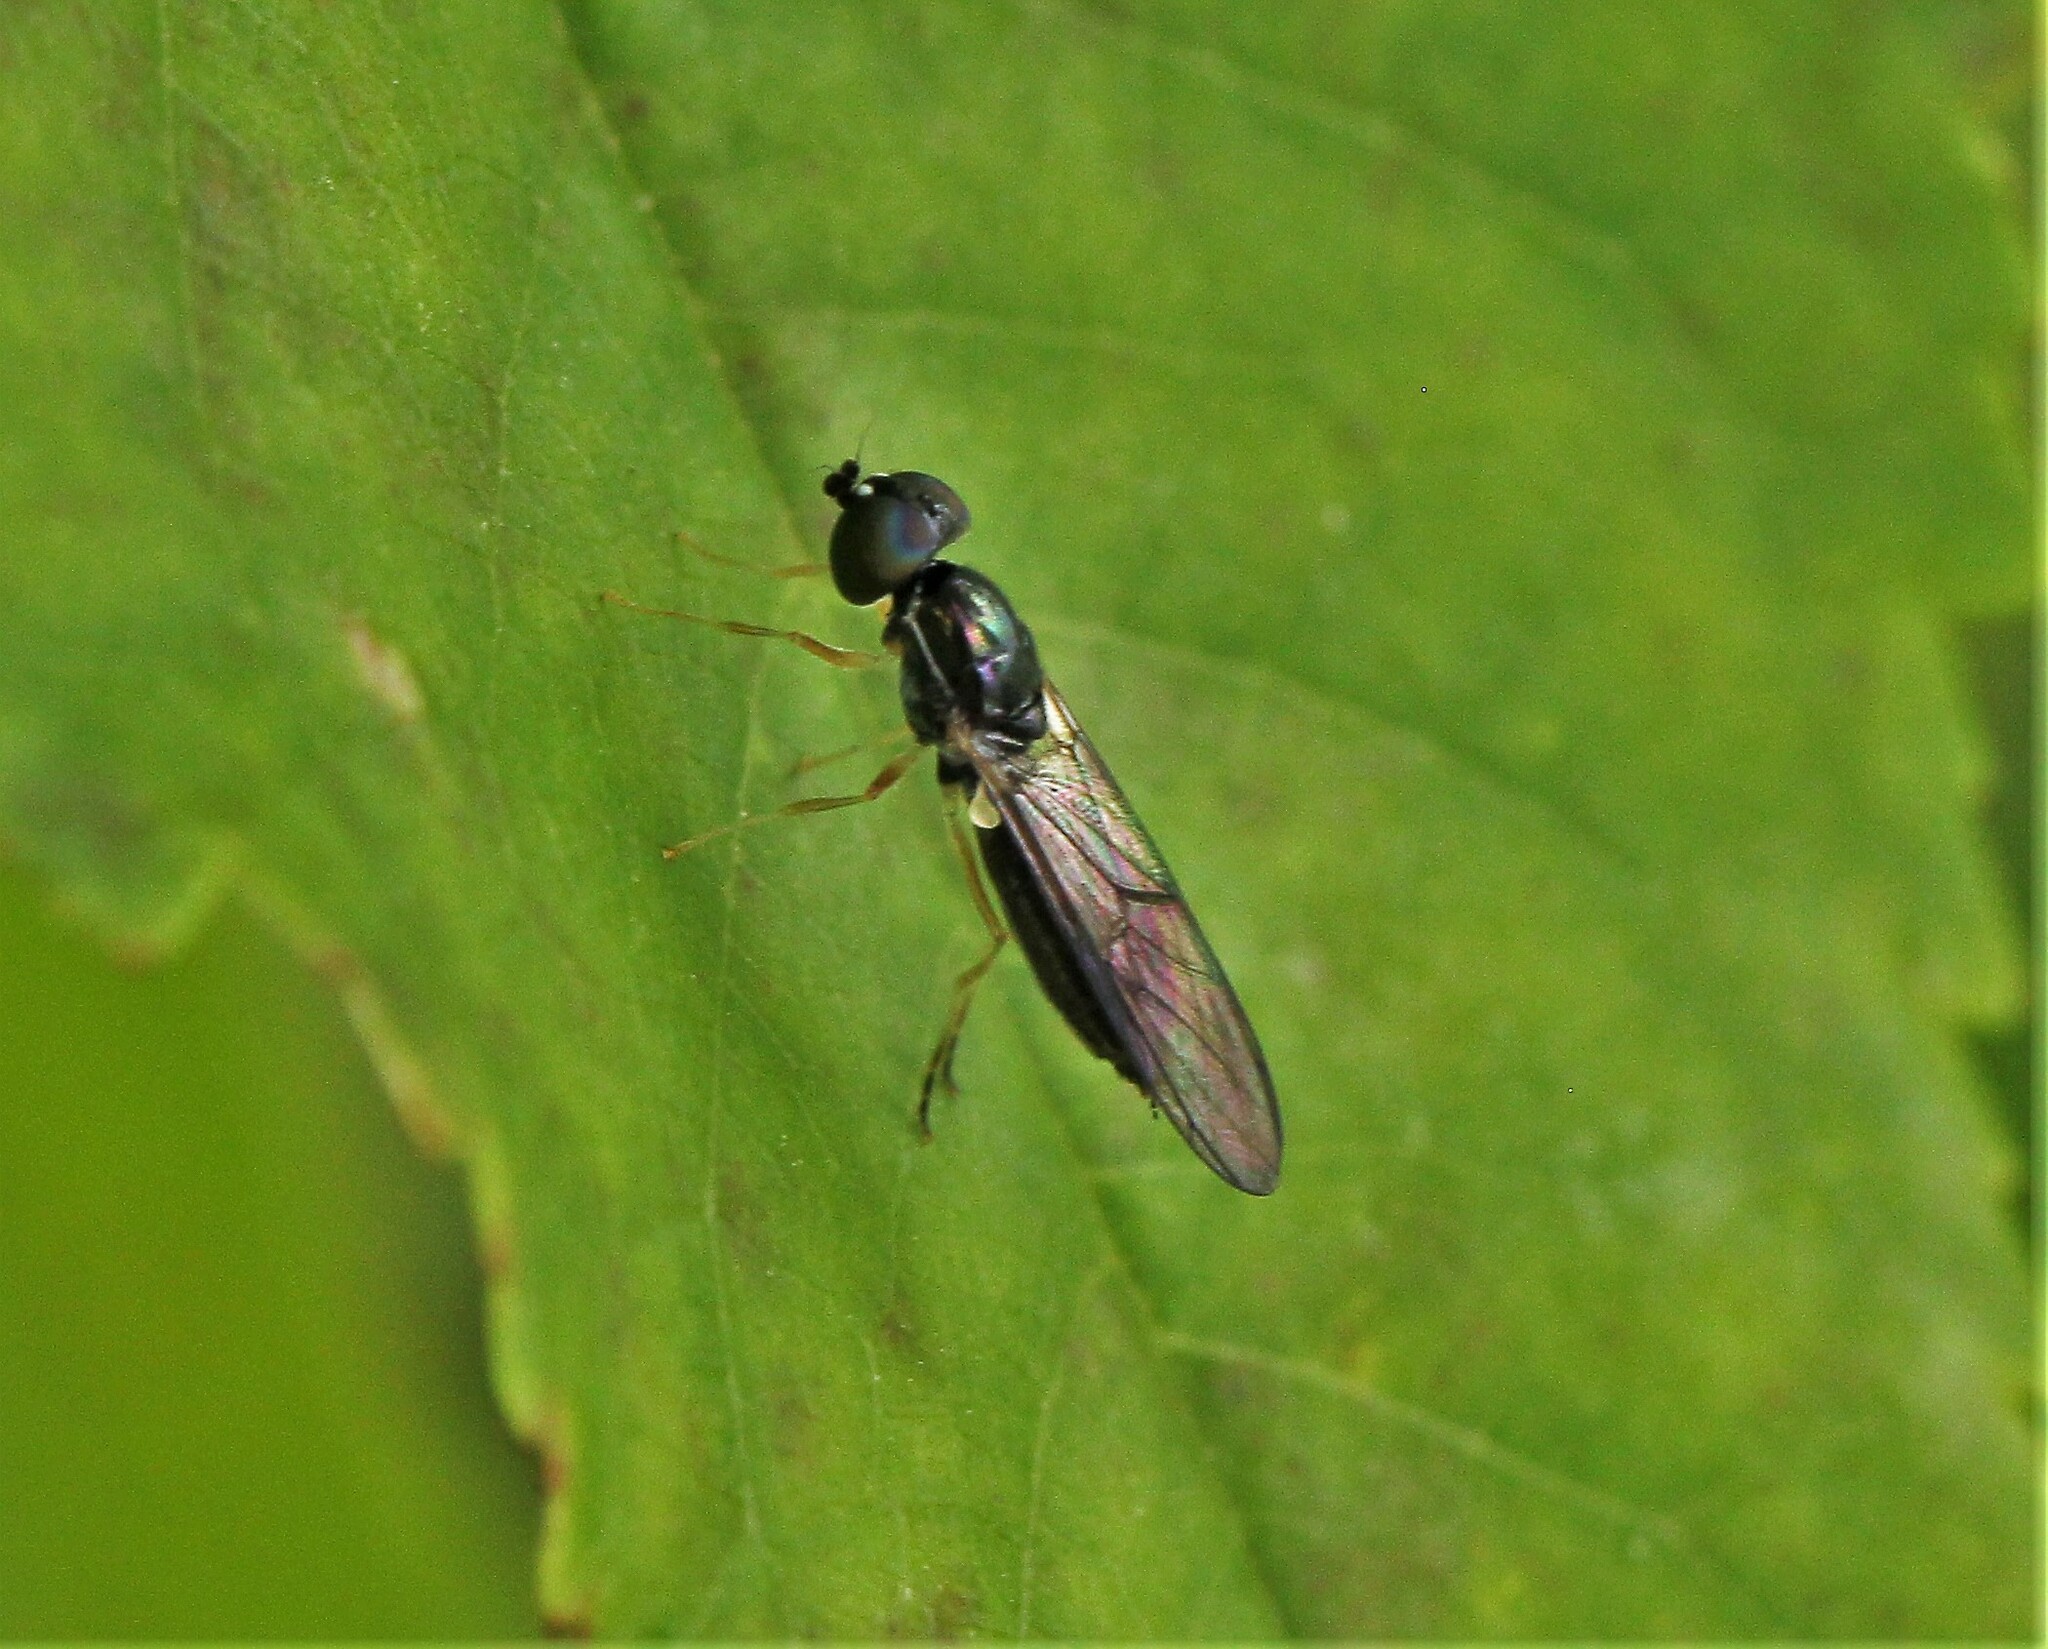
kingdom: Animalia
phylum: Arthropoda
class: Insecta
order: Diptera
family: Stratiomyidae
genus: Sargus
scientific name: Sargus decorus
